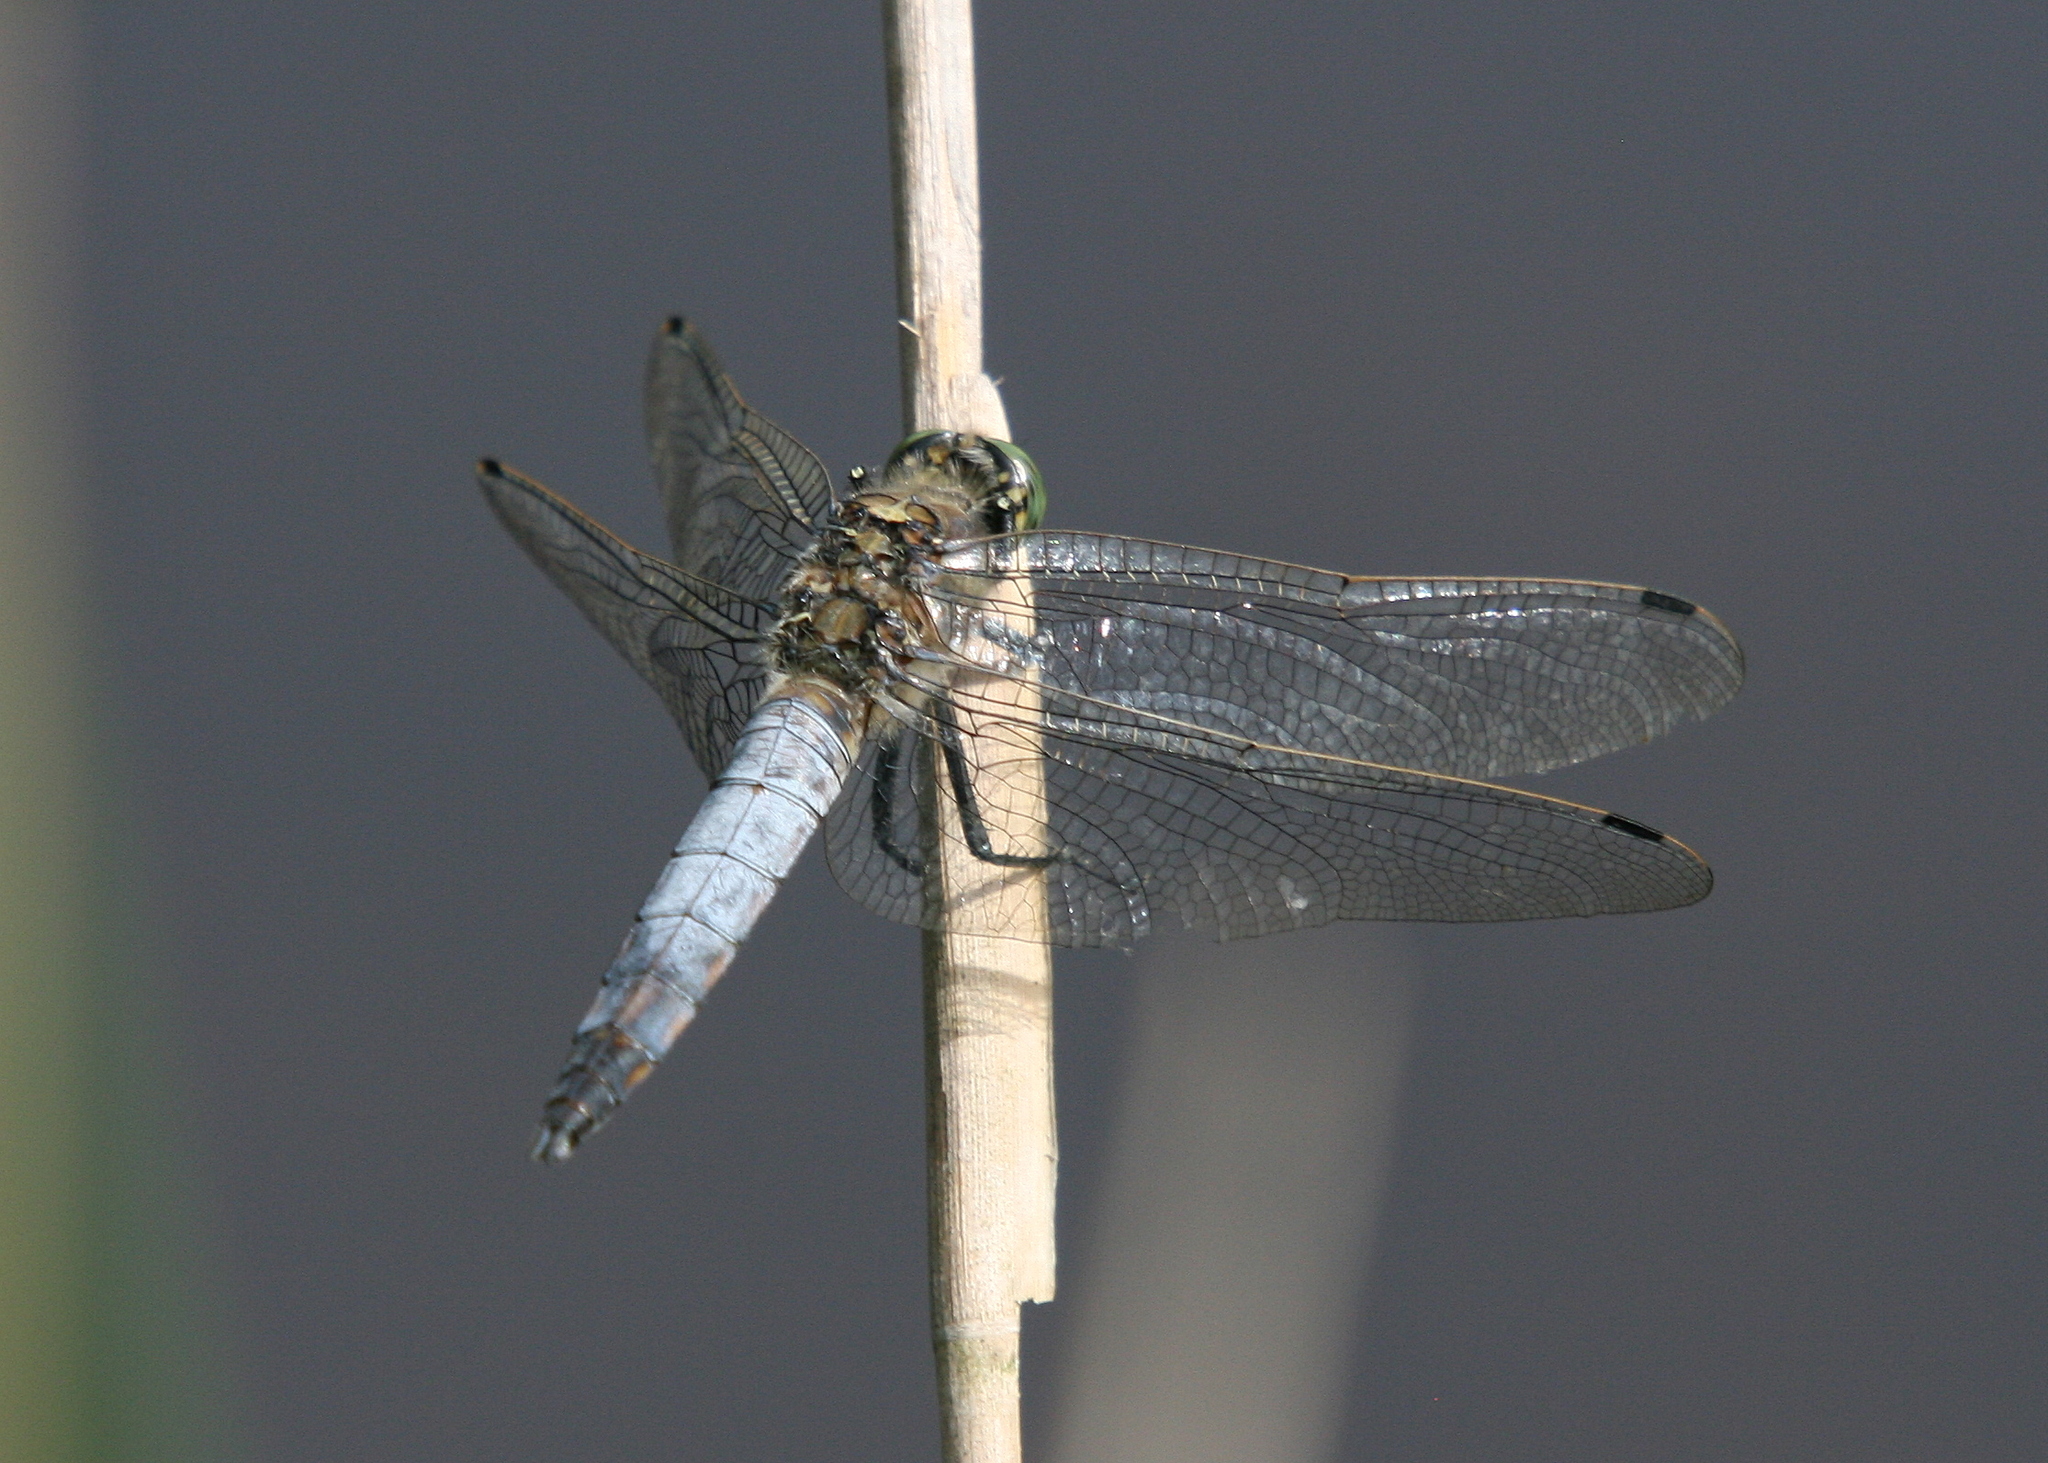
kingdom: Animalia
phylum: Arthropoda
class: Insecta
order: Odonata
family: Libellulidae
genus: Orthetrum
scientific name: Orthetrum cancellatum
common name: Black-tailed skimmer
